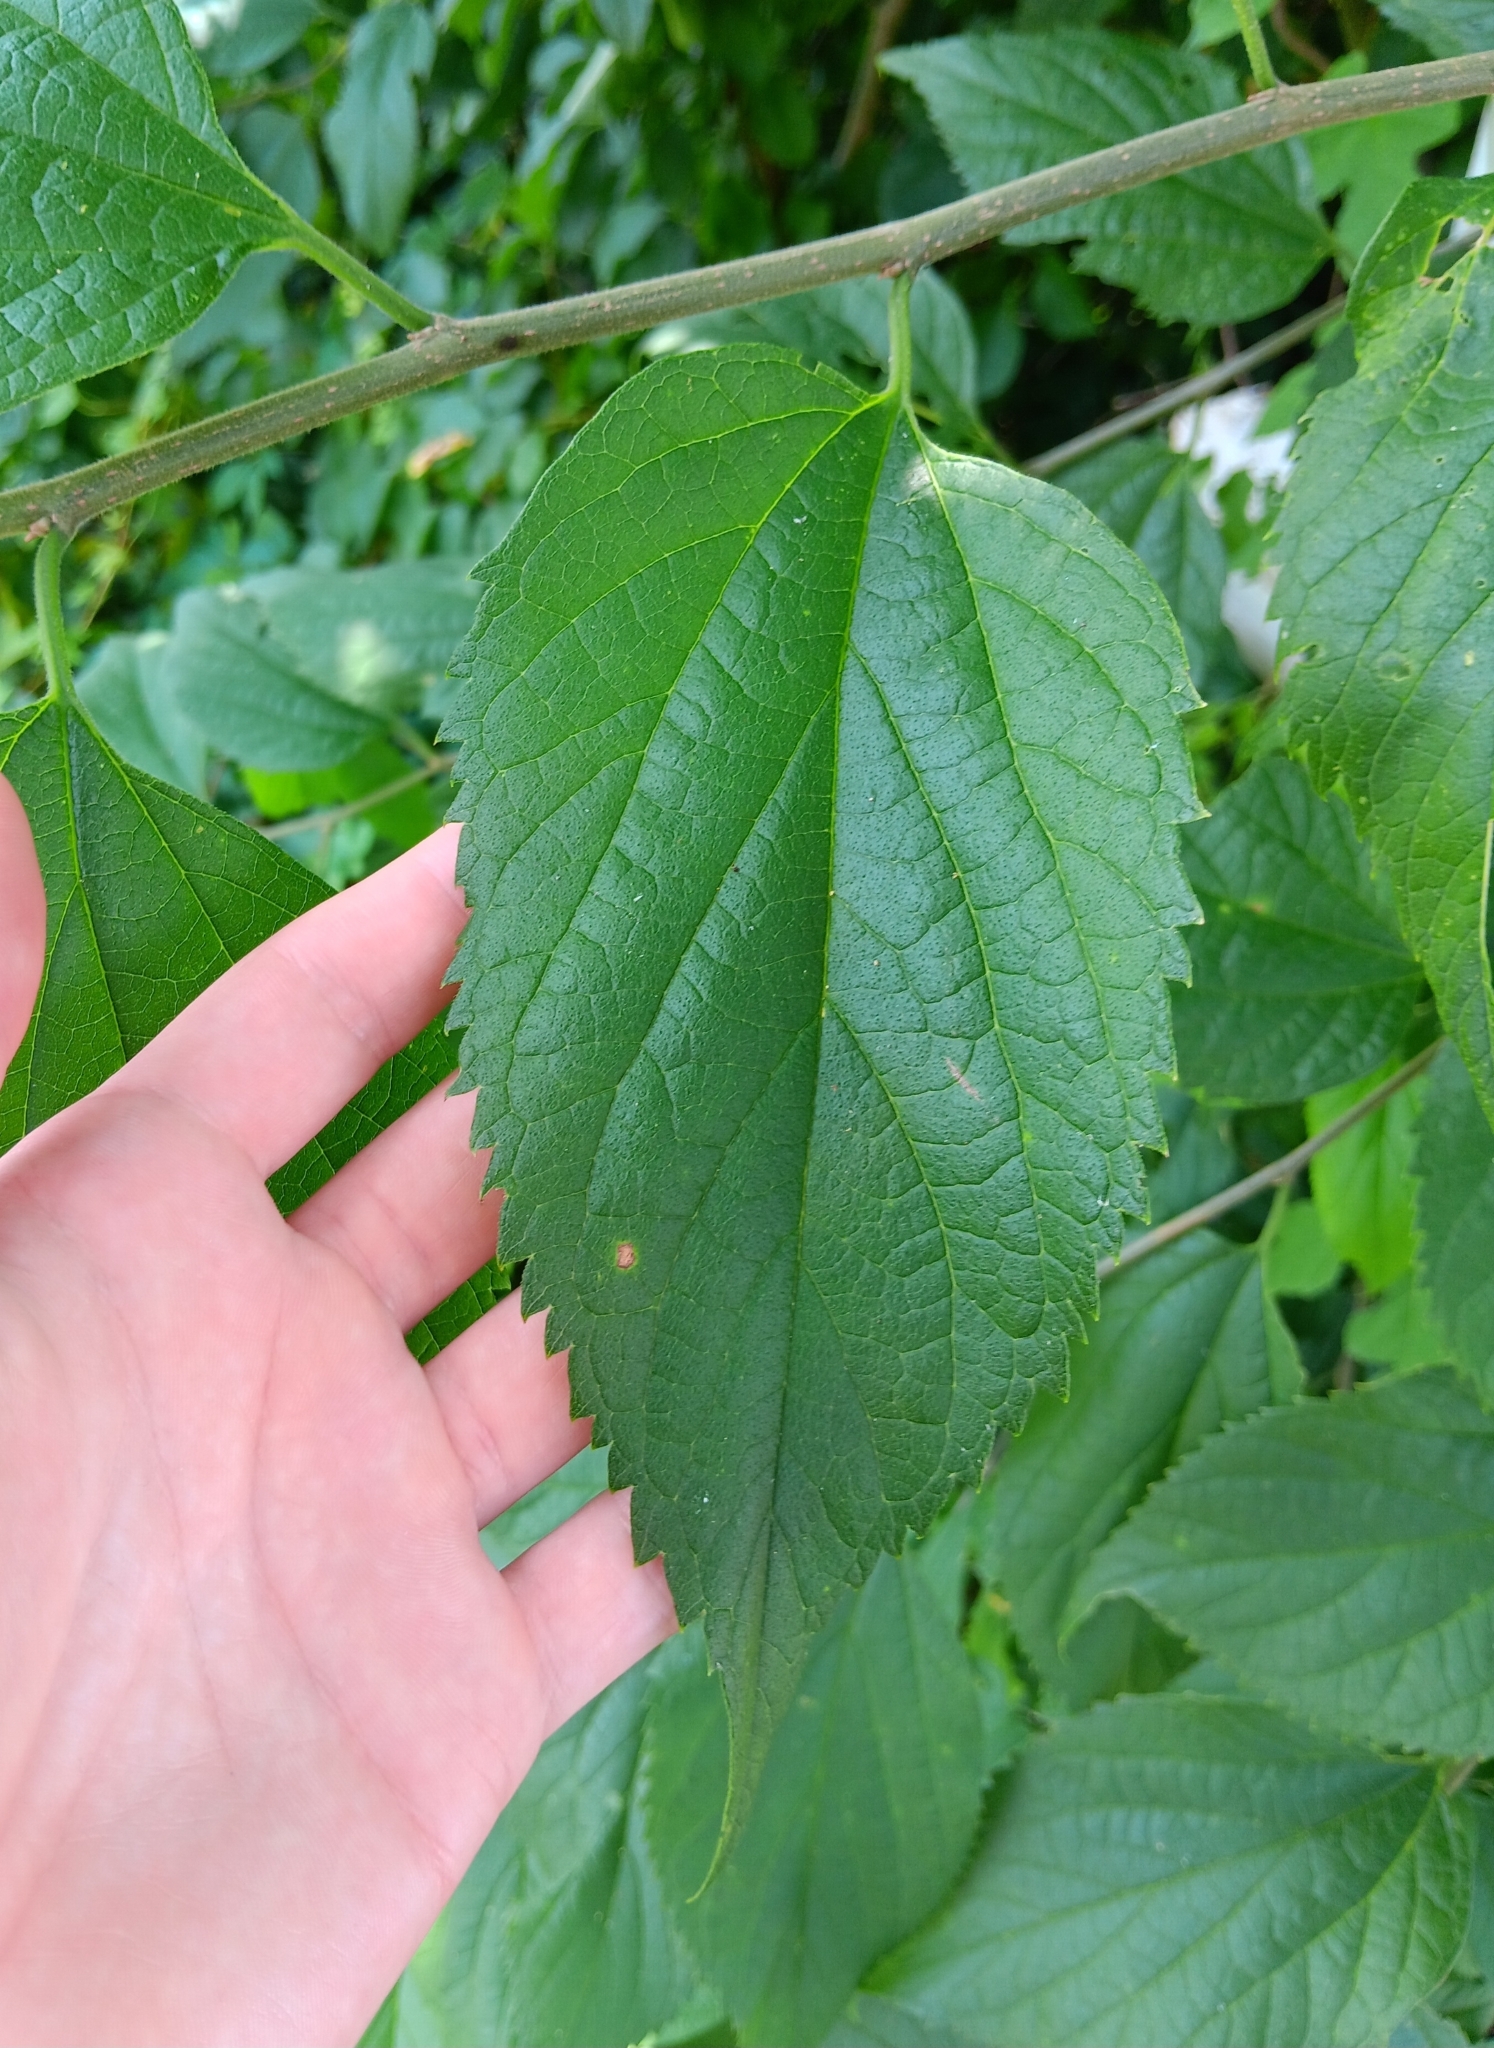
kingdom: Plantae
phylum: Tracheophyta
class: Magnoliopsida
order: Rosales
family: Cannabaceae
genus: Celtis
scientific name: Celtis occidentalis
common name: Common hackberry
